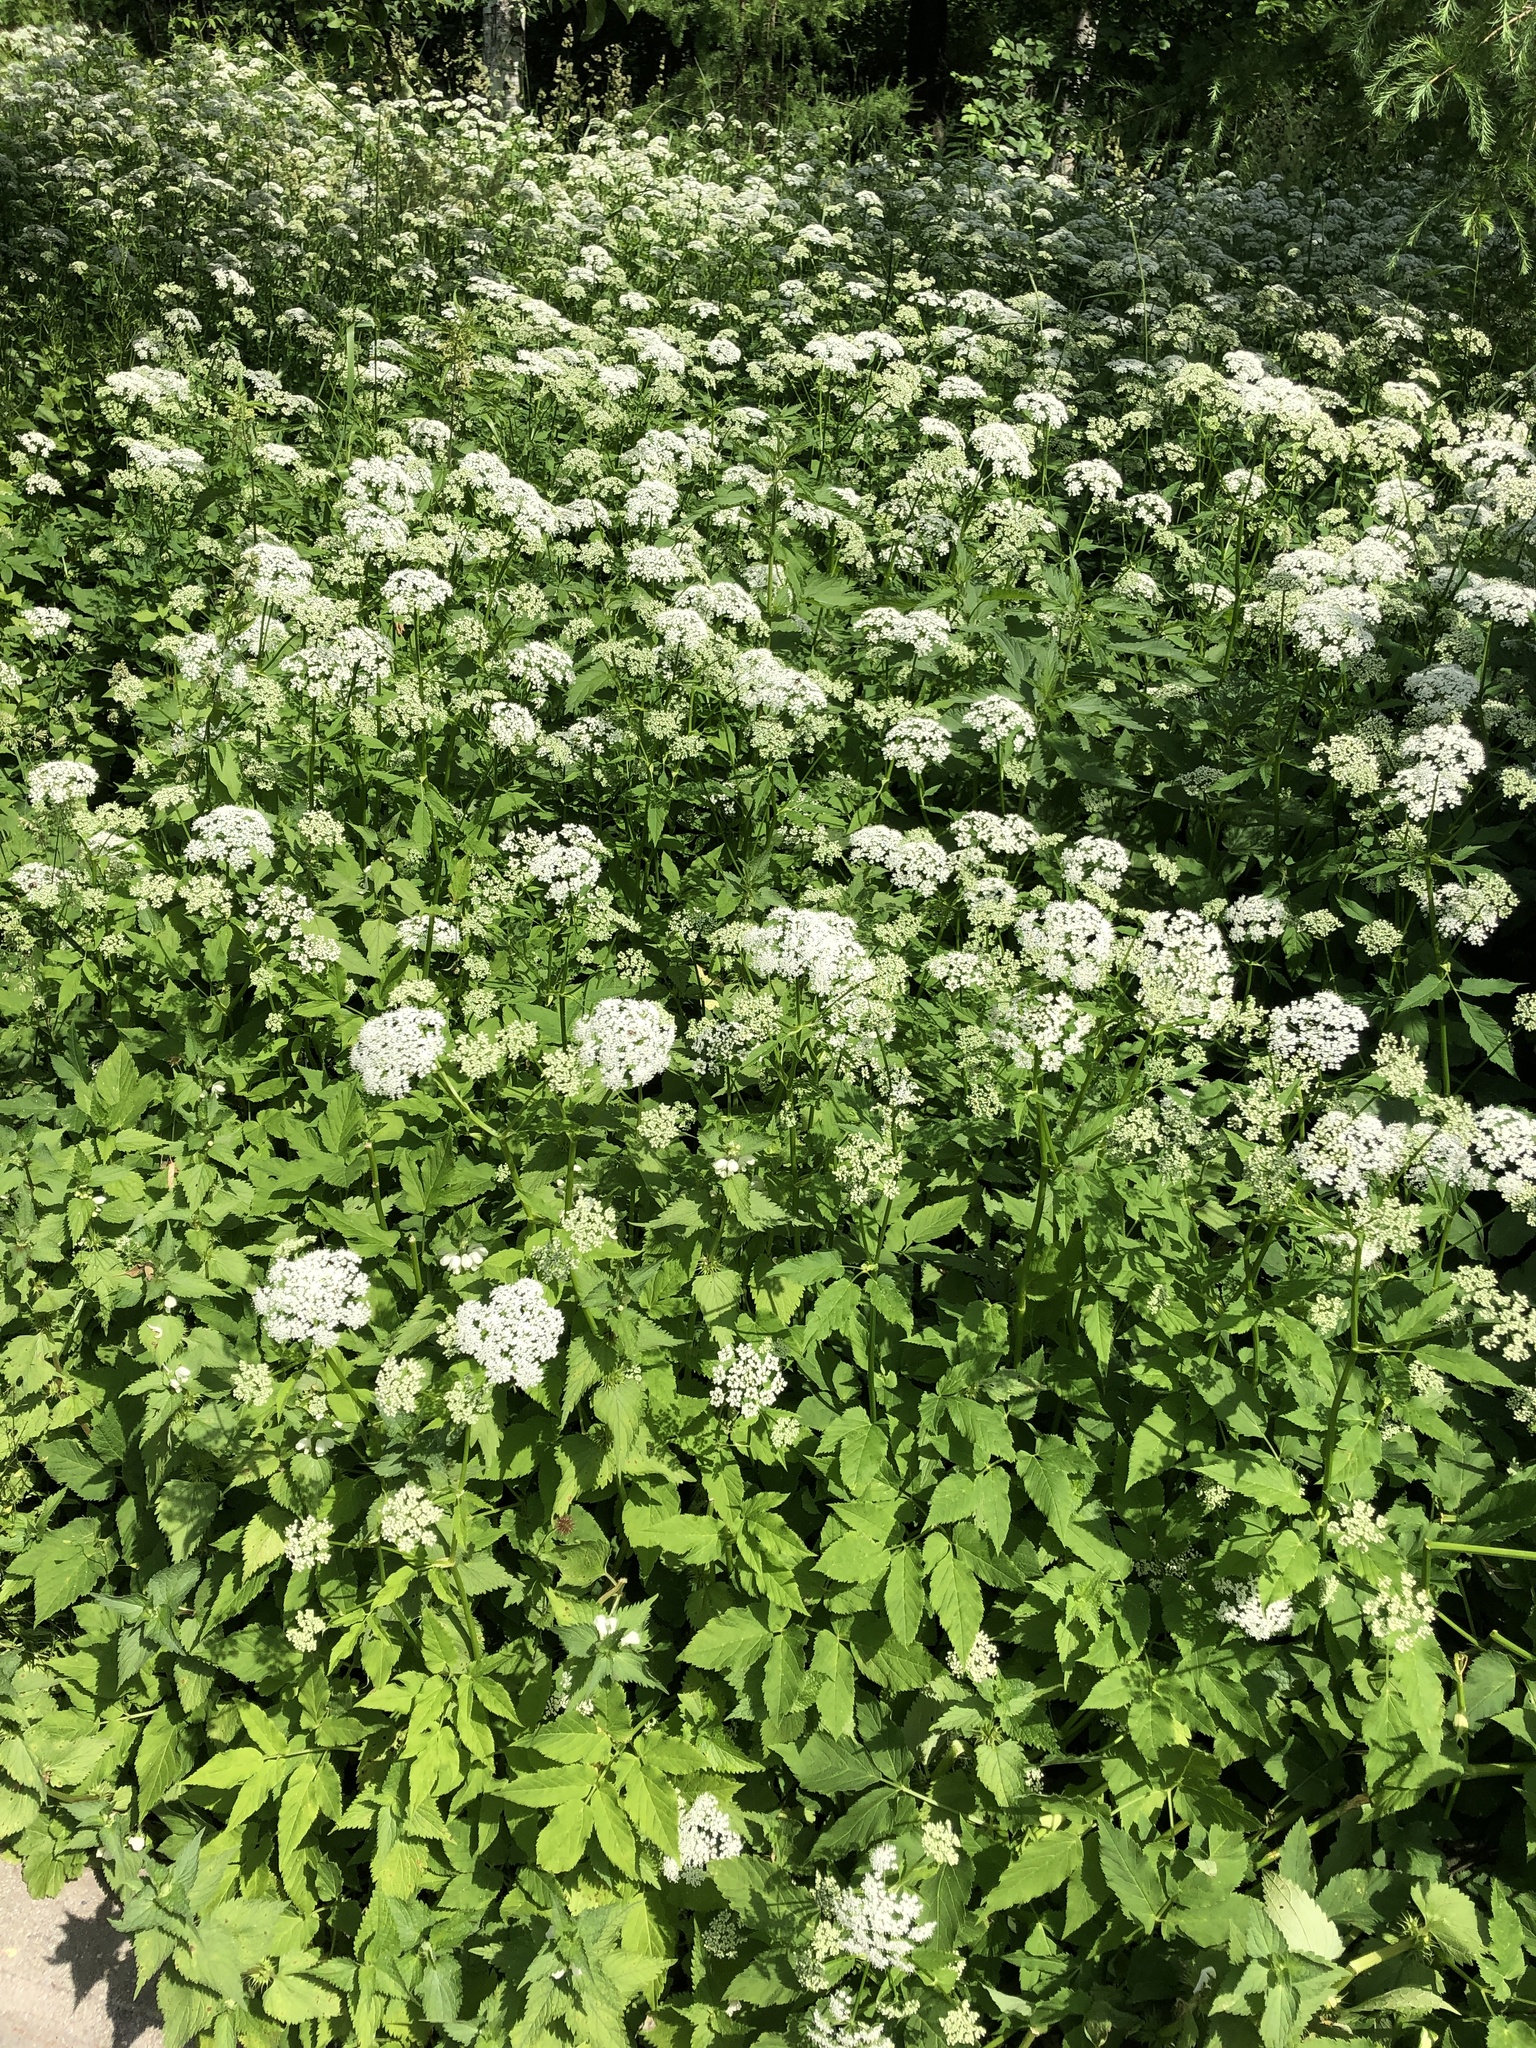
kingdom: Plantae
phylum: Tracheophyta
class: Magnoliopsida
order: Apiales
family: Apiaceae
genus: Aegopodium
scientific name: Aegopodium podagraria
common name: Ground-elder
